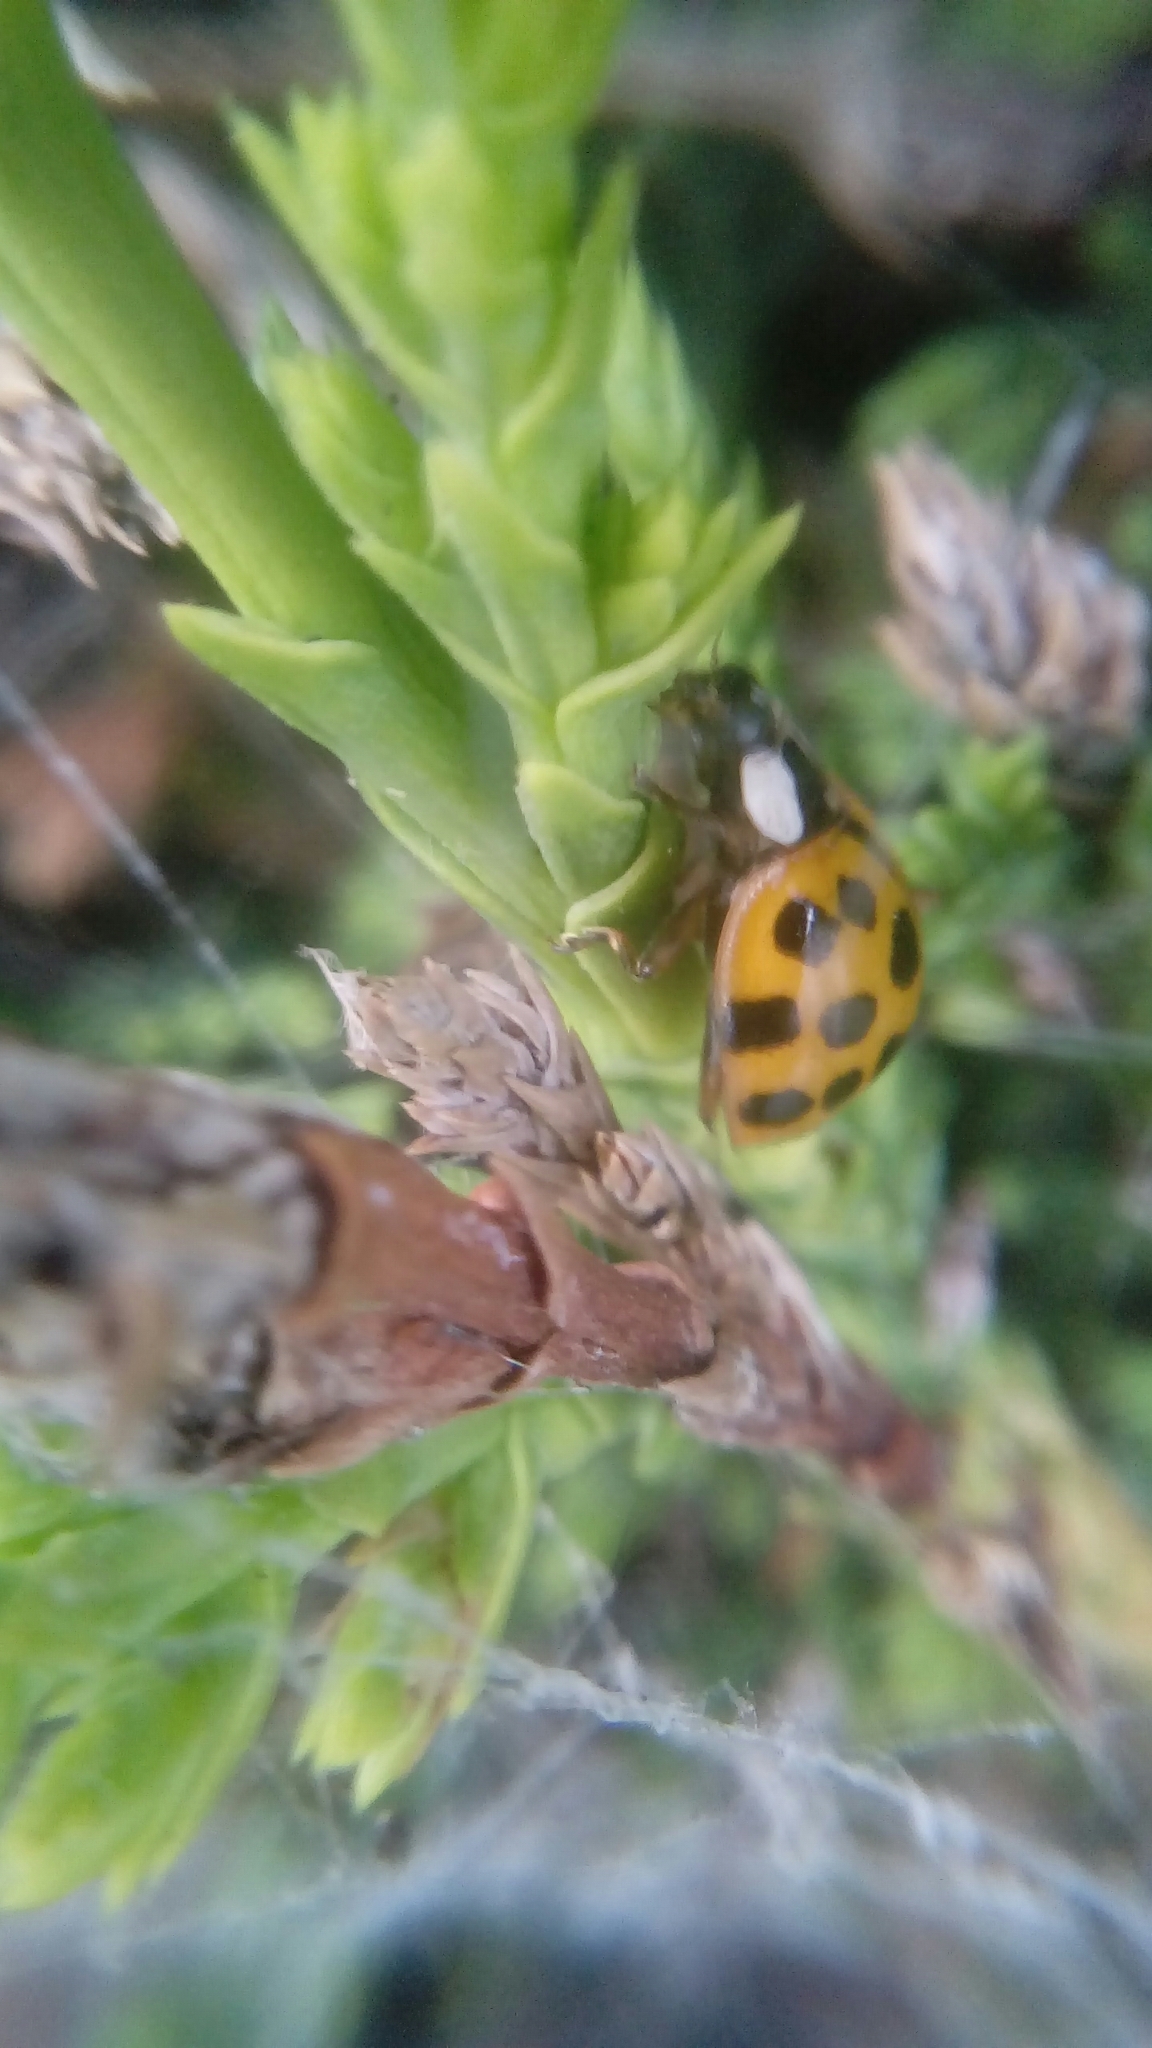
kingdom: Animalia
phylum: Arthropoda
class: Insecta
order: Coleoptera
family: Coccinellidae
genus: Harmonia
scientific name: Harmonia axyridis
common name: Harlequin ladybird
